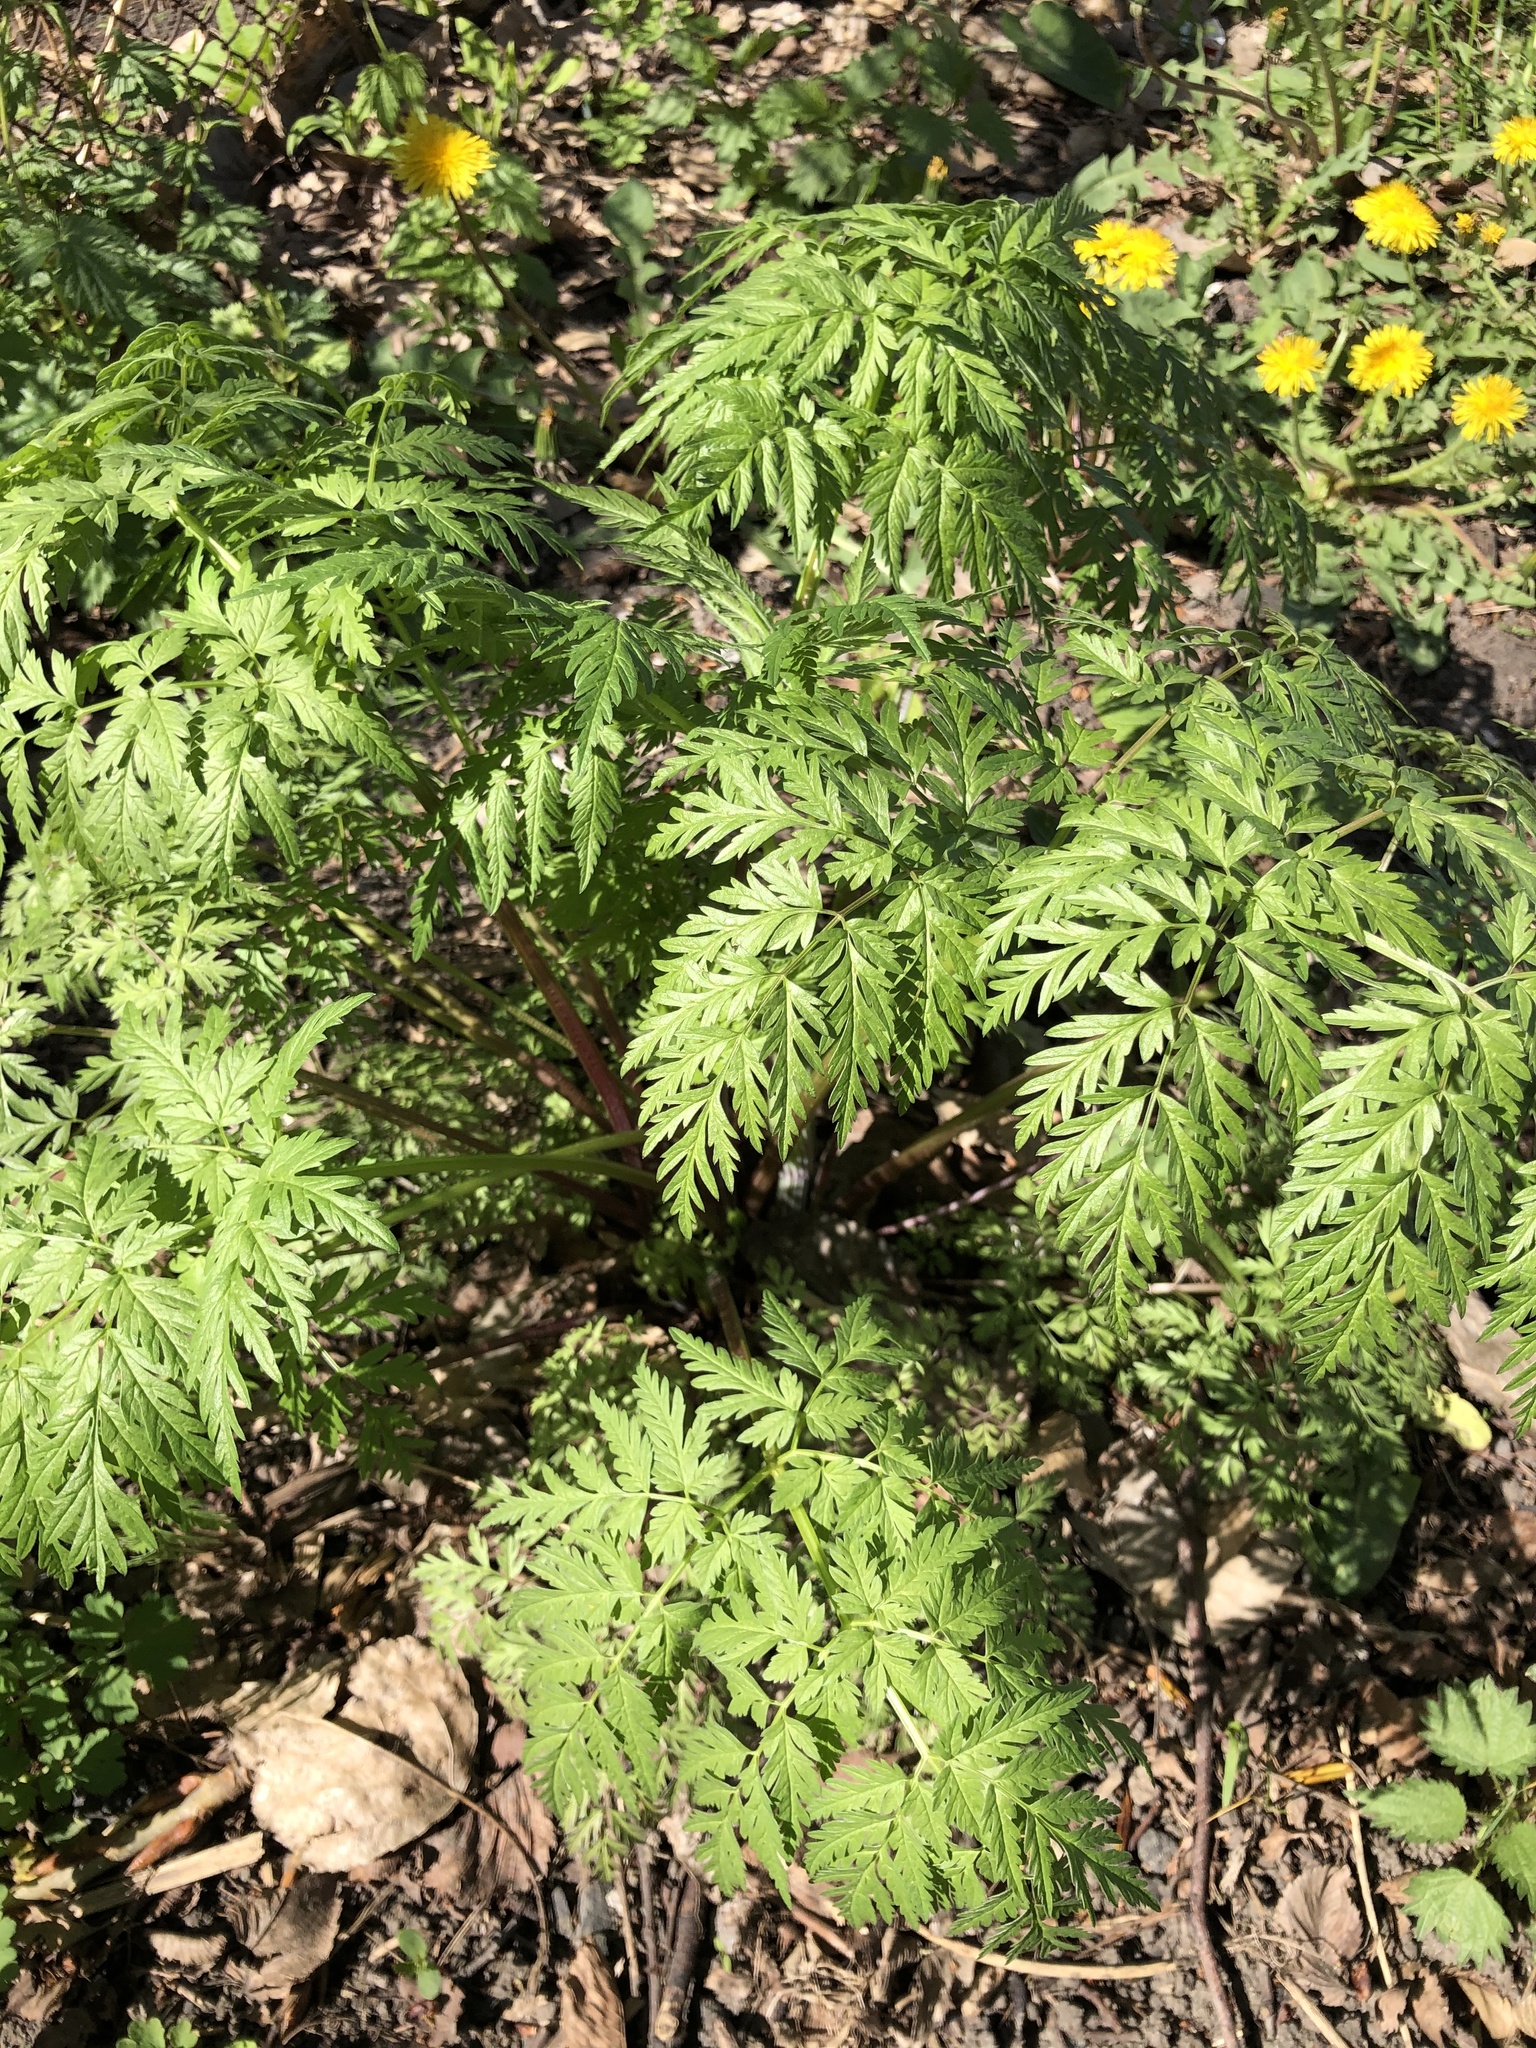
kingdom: Plantae
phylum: Tracheophyta
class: Magnoliopsida
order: Apiales
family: Apiaceae
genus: Anthriscus
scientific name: Anthriscus sylvestris
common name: Cow parsley
